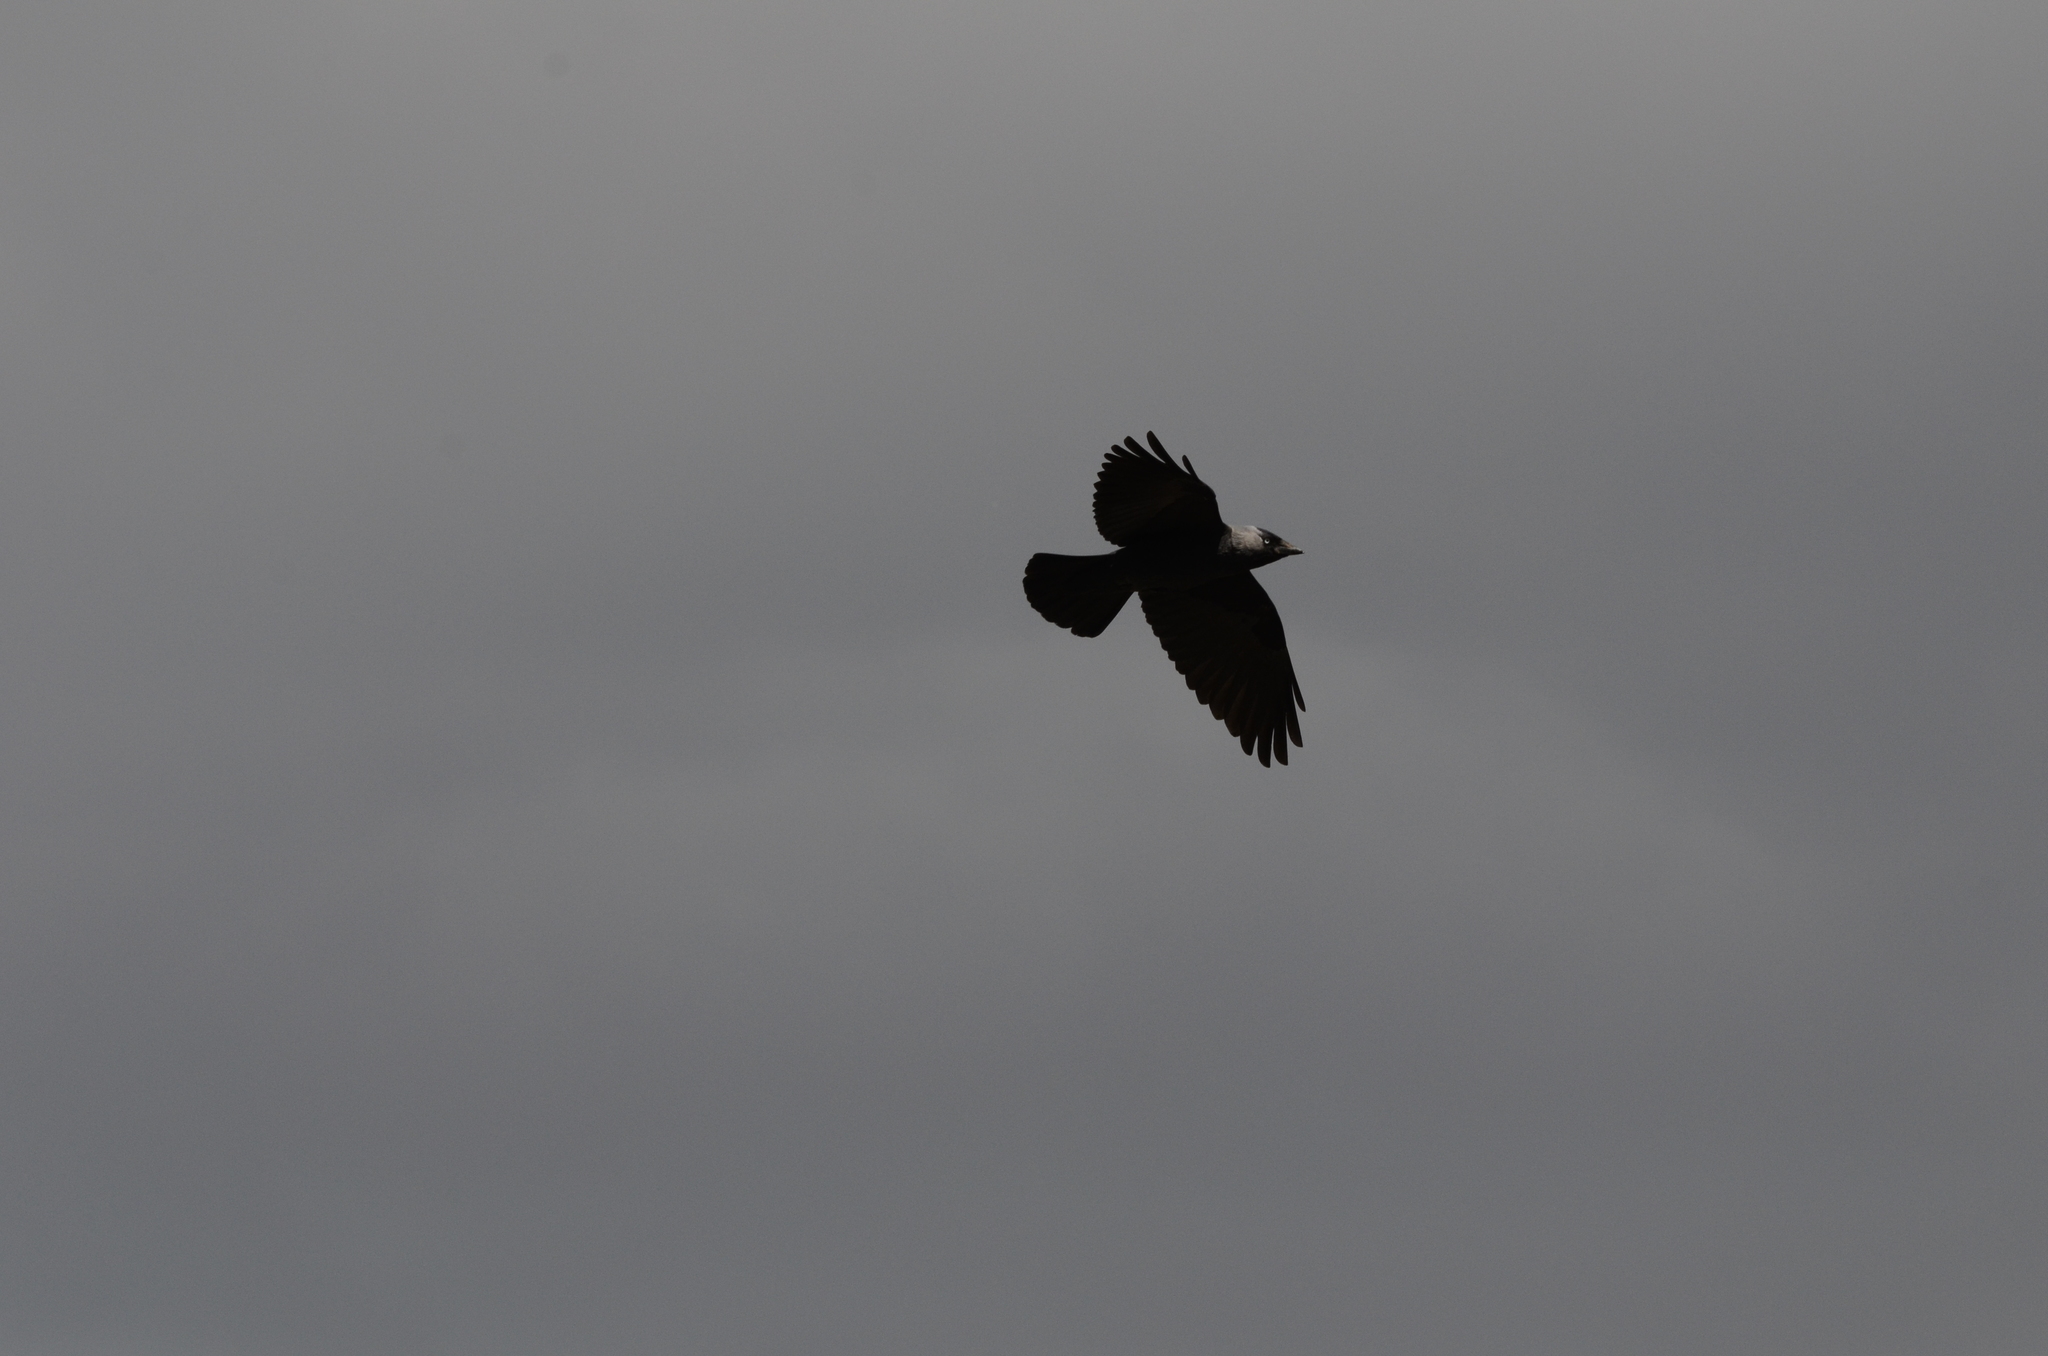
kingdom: Animalia
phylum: Chordata
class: Aves
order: Passeriformes
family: Corvidae
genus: Coloeus
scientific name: Coloeus monedula
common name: Western jackdaw
